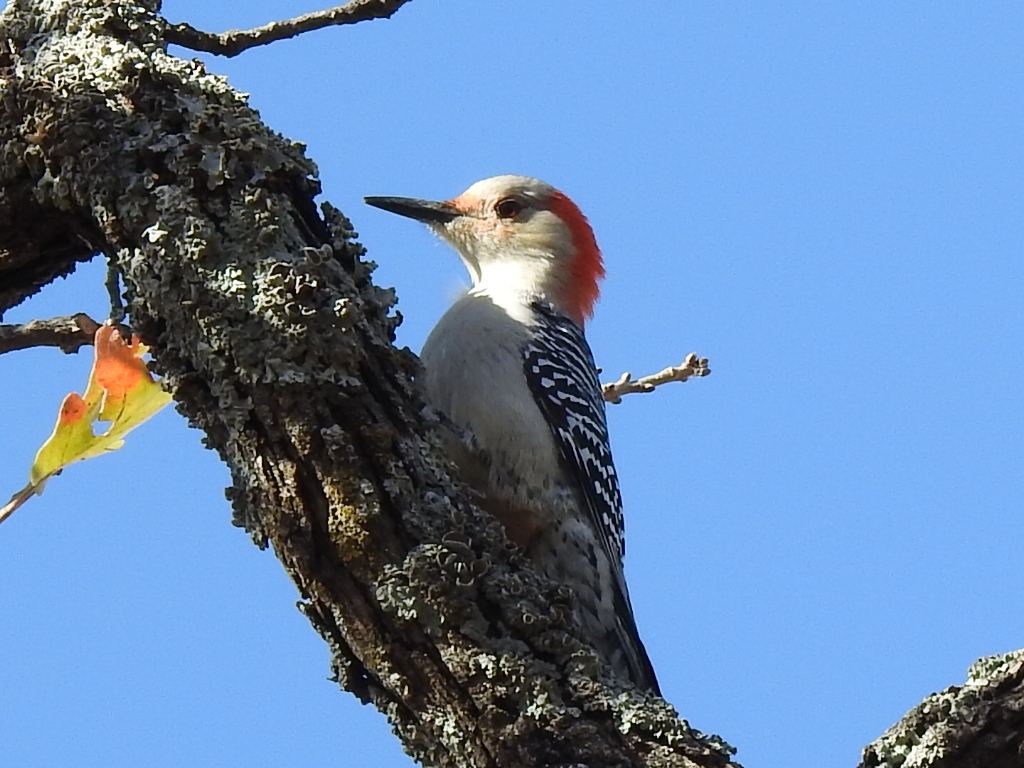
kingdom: Animalia
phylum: Chordata
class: Aves
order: Piciformes
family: Picidae
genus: Melanerpes
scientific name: Melanerpes carolinus
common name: Red-bellied woodpecker
